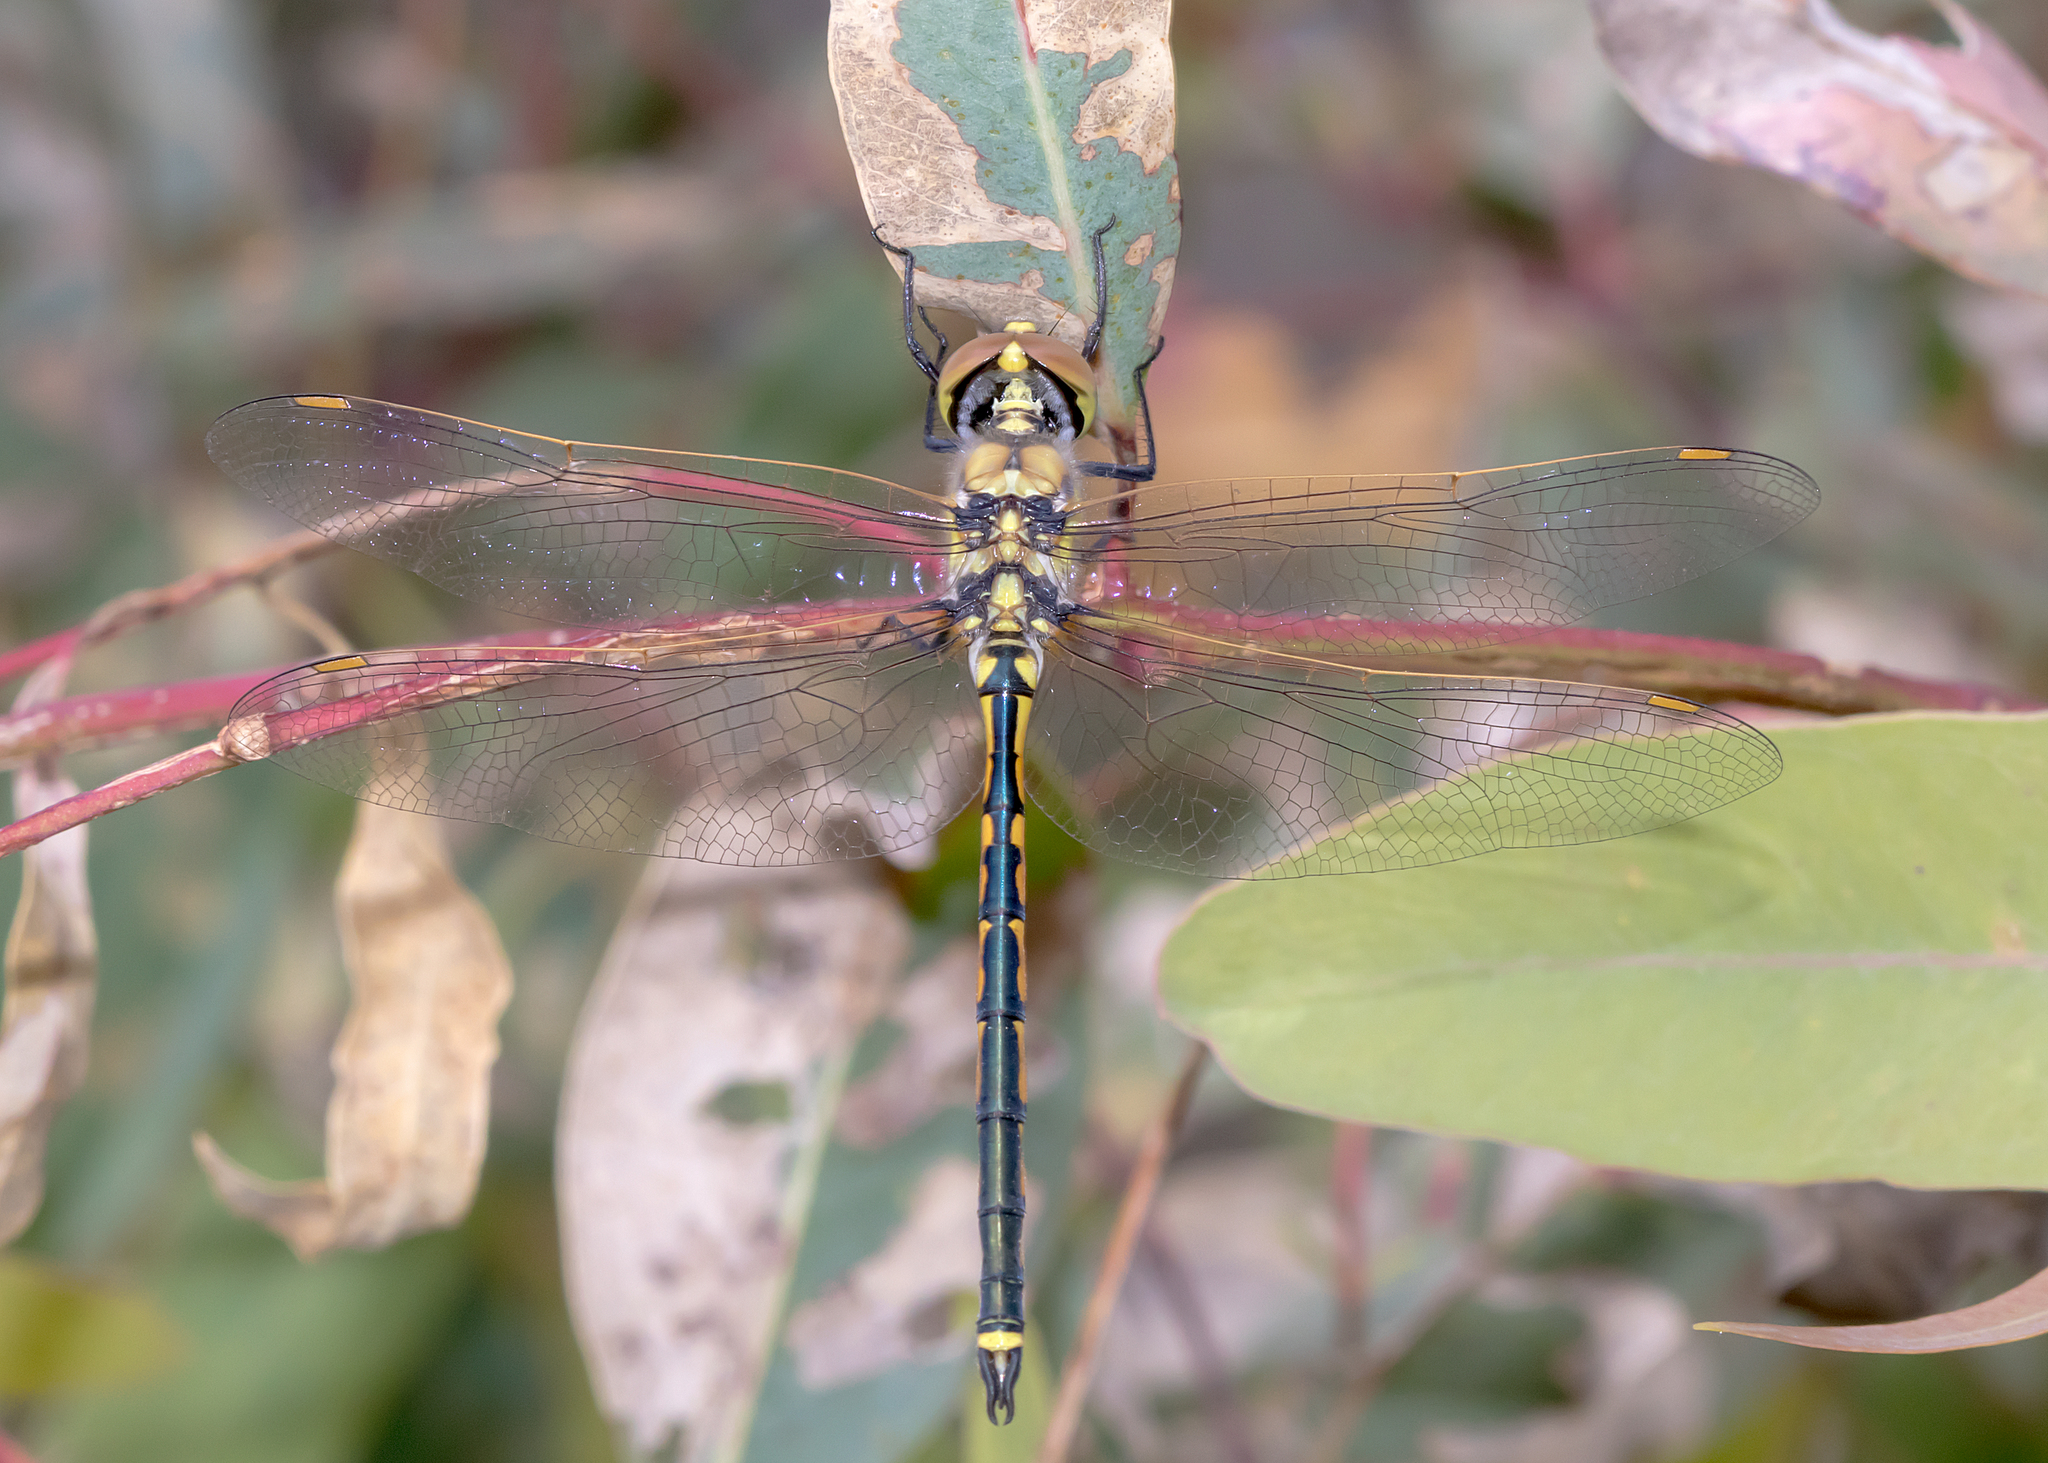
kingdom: Animalia
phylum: Arthropoda
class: Insecta
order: Odonata
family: Corduliidae
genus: Hemicordulia
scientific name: Hemicordulia tau
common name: Tau emerald
